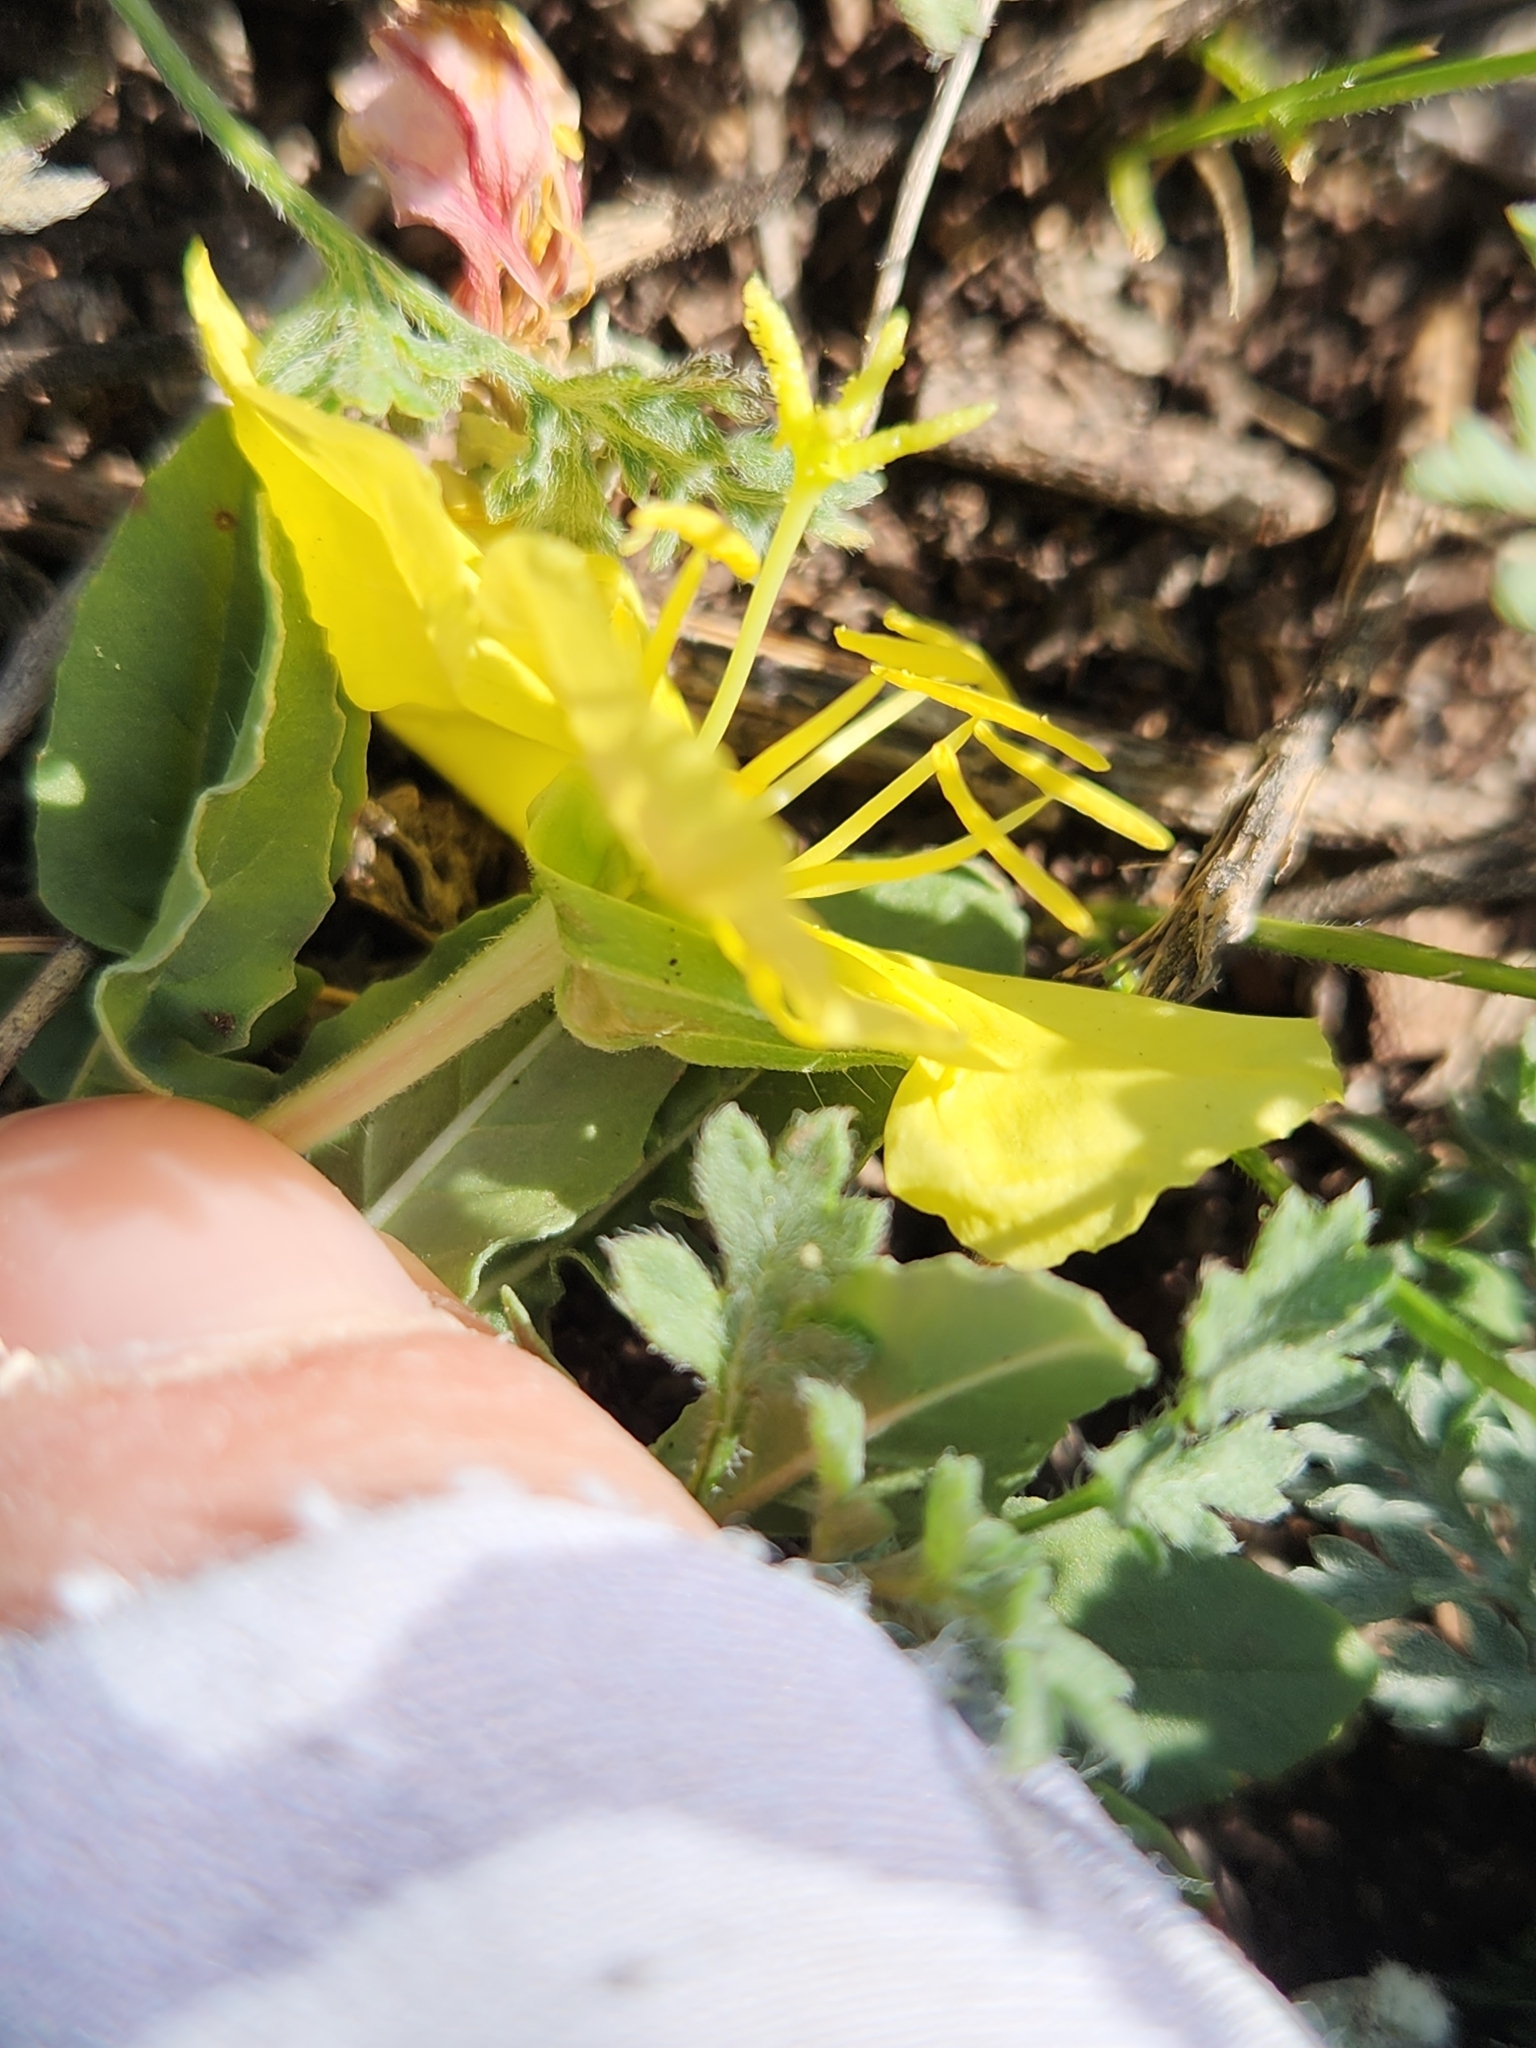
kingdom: Plantae
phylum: Tracheophyta
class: Magnoliopsida
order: Myrtales
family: Onagraceae
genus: Oenothera
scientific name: Oenothera triloba
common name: Sessile evening-primrose
